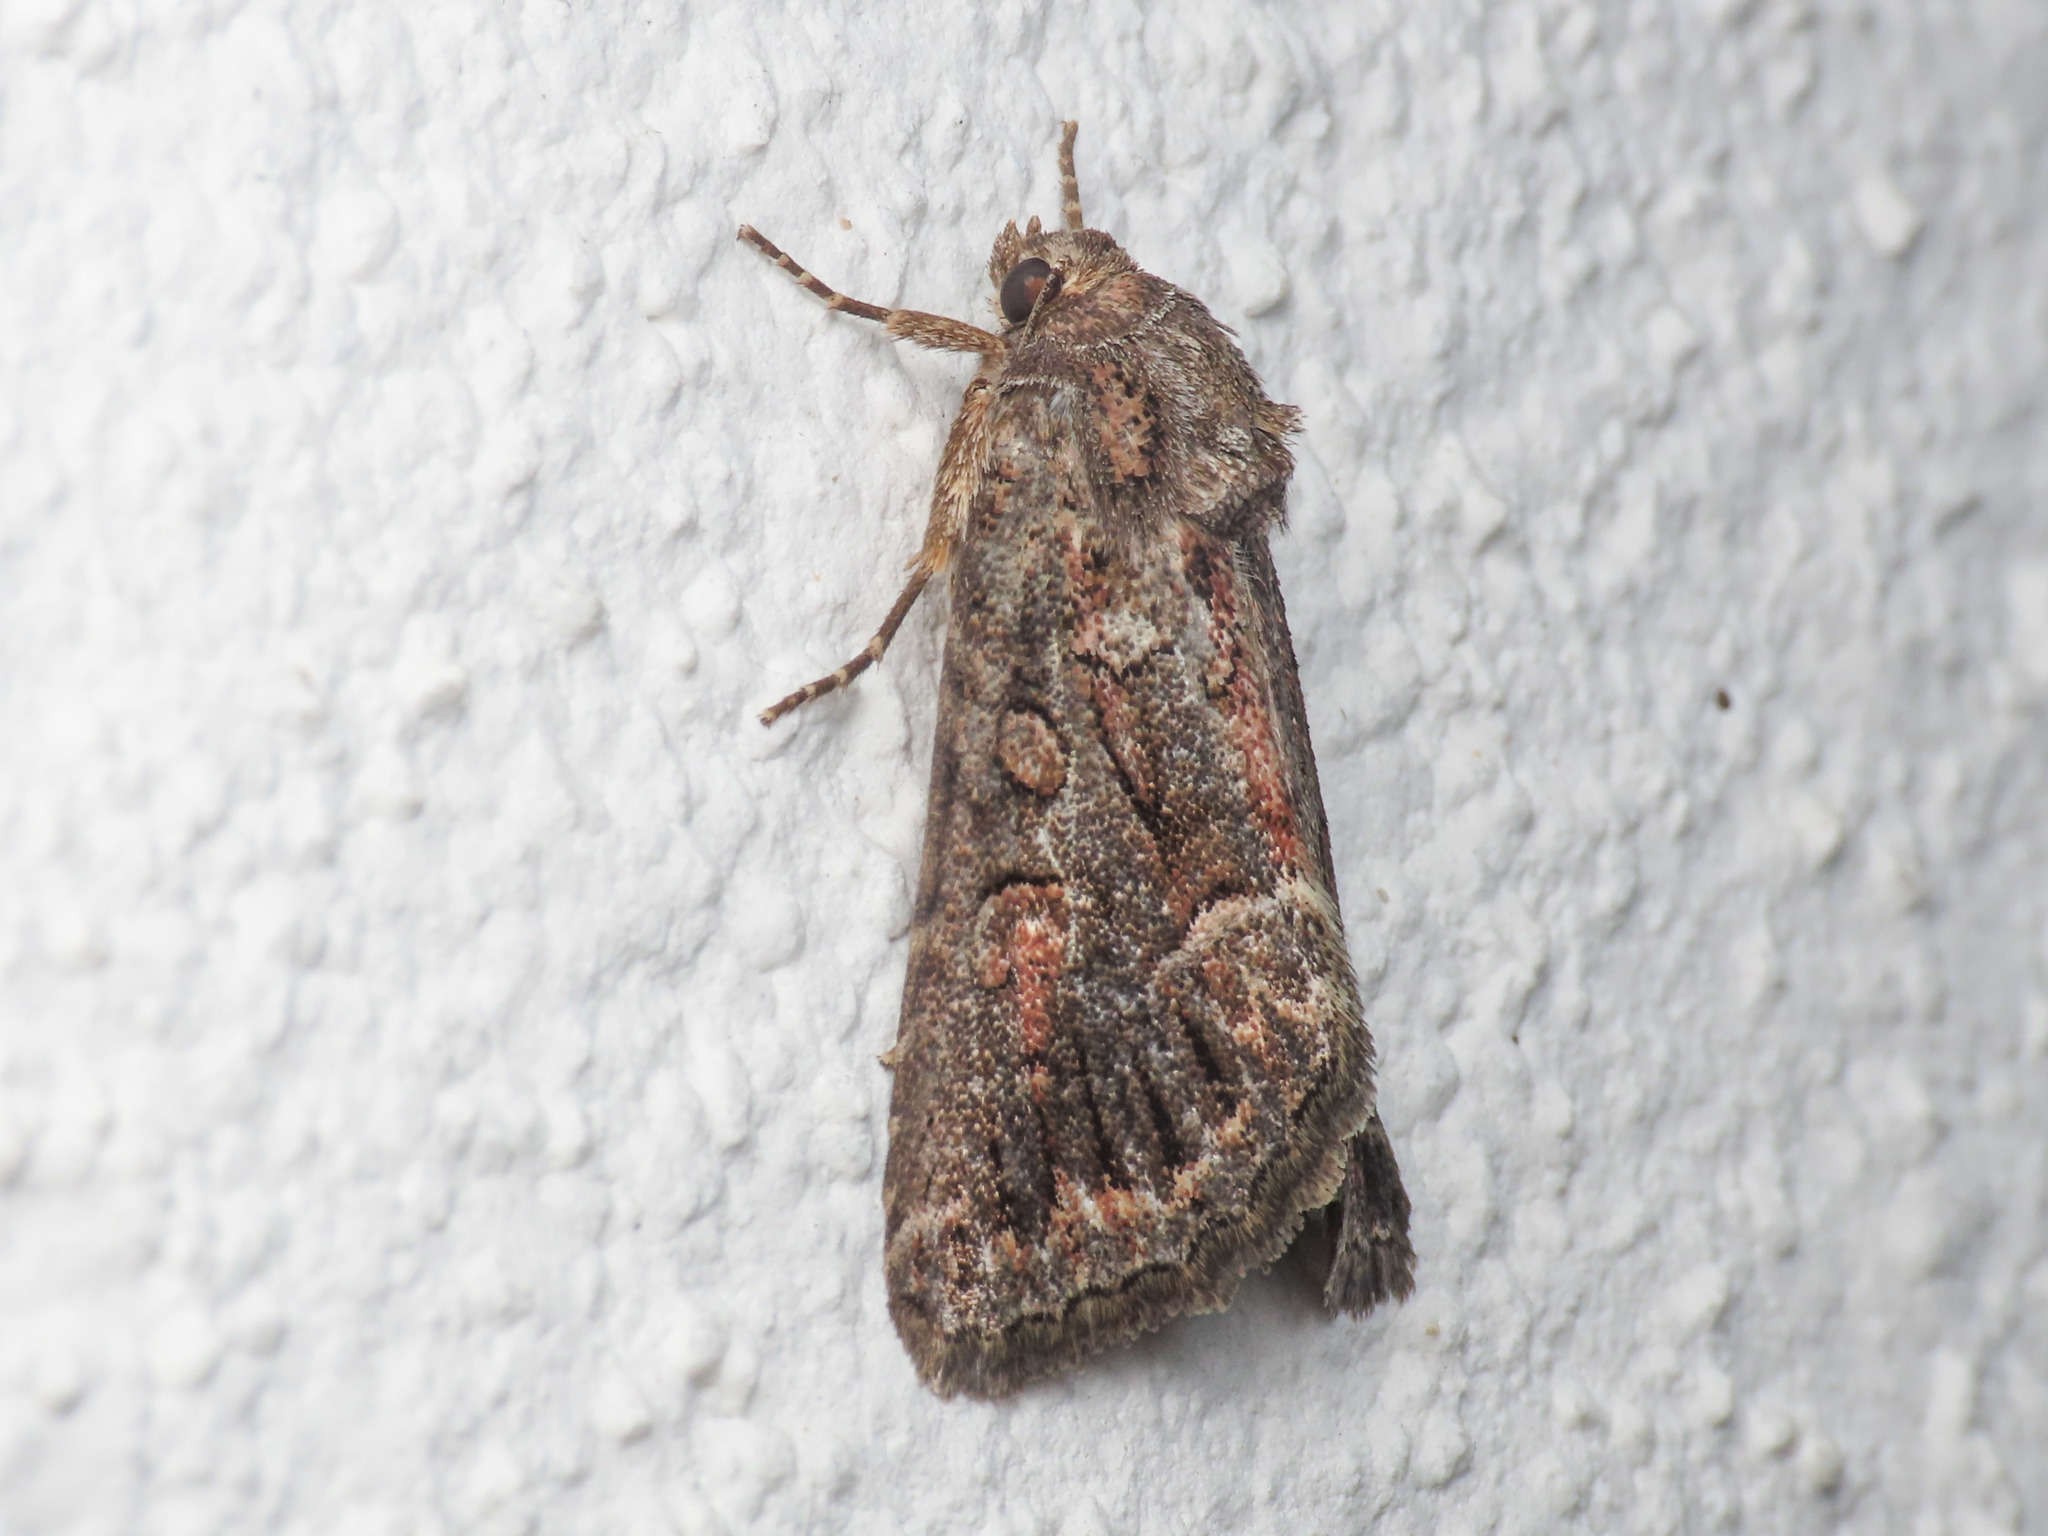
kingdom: Animalia
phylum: Arthropoda
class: Insecta
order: Lepidoptera
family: Noctuidae
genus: Thalpophila
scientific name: Thalpophila matura
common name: Straw underwing
